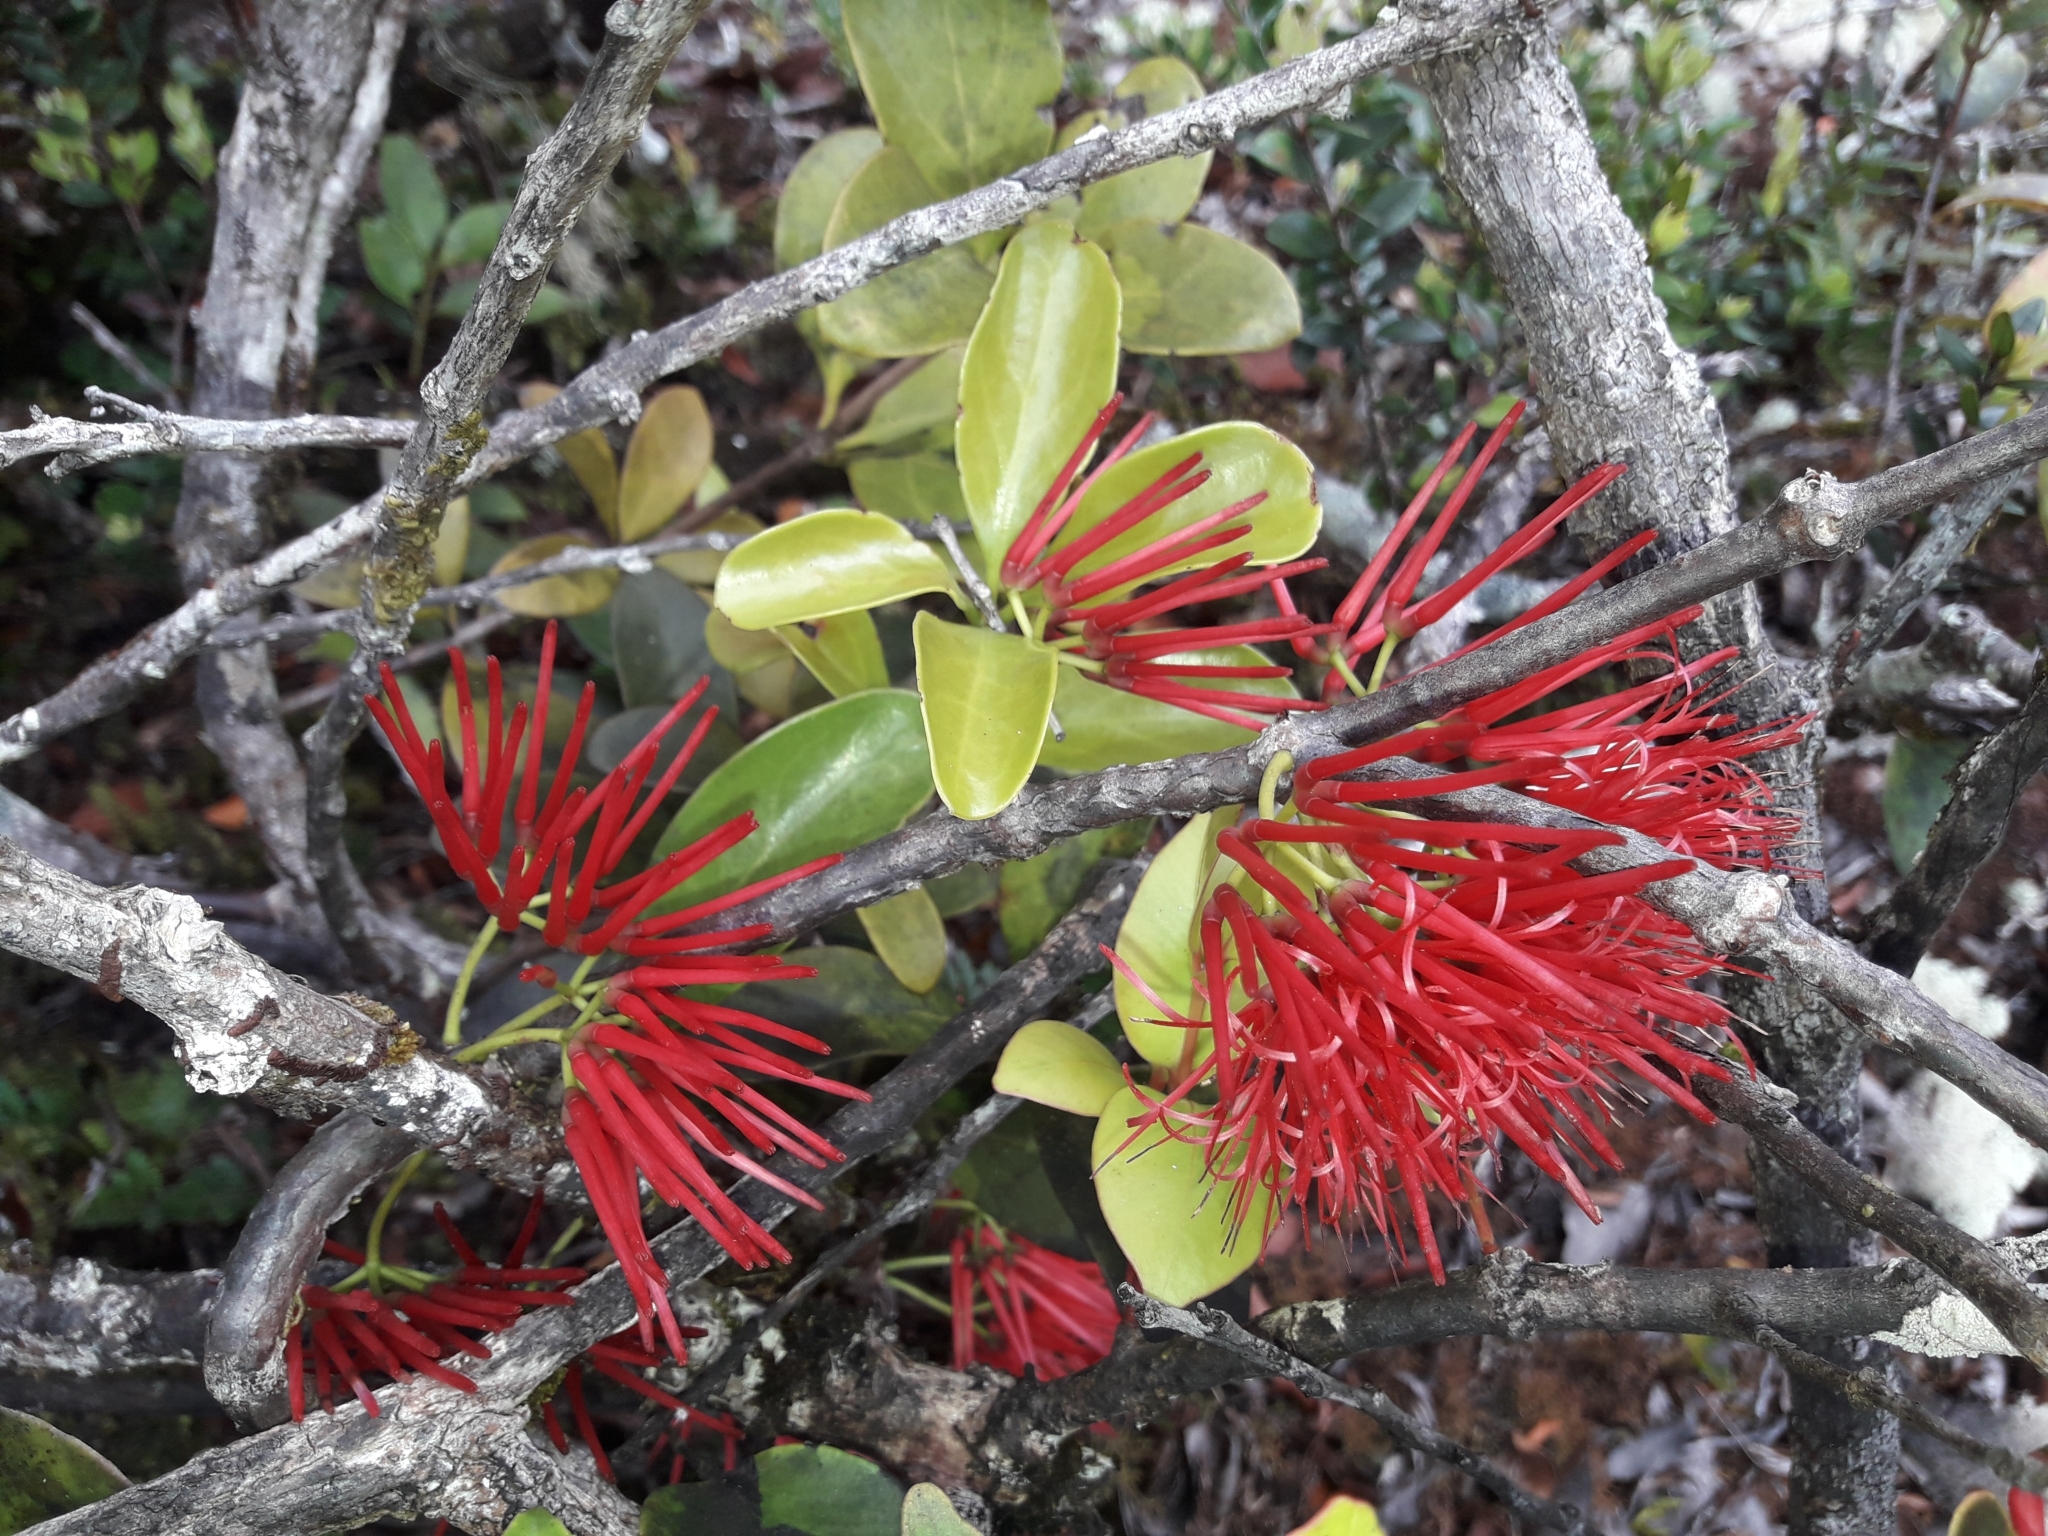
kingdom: Plantae
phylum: Tracheophyta
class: Magnoliopsida
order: Santalales
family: Loranthaceae
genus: Amyema
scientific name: Amyema artensis
